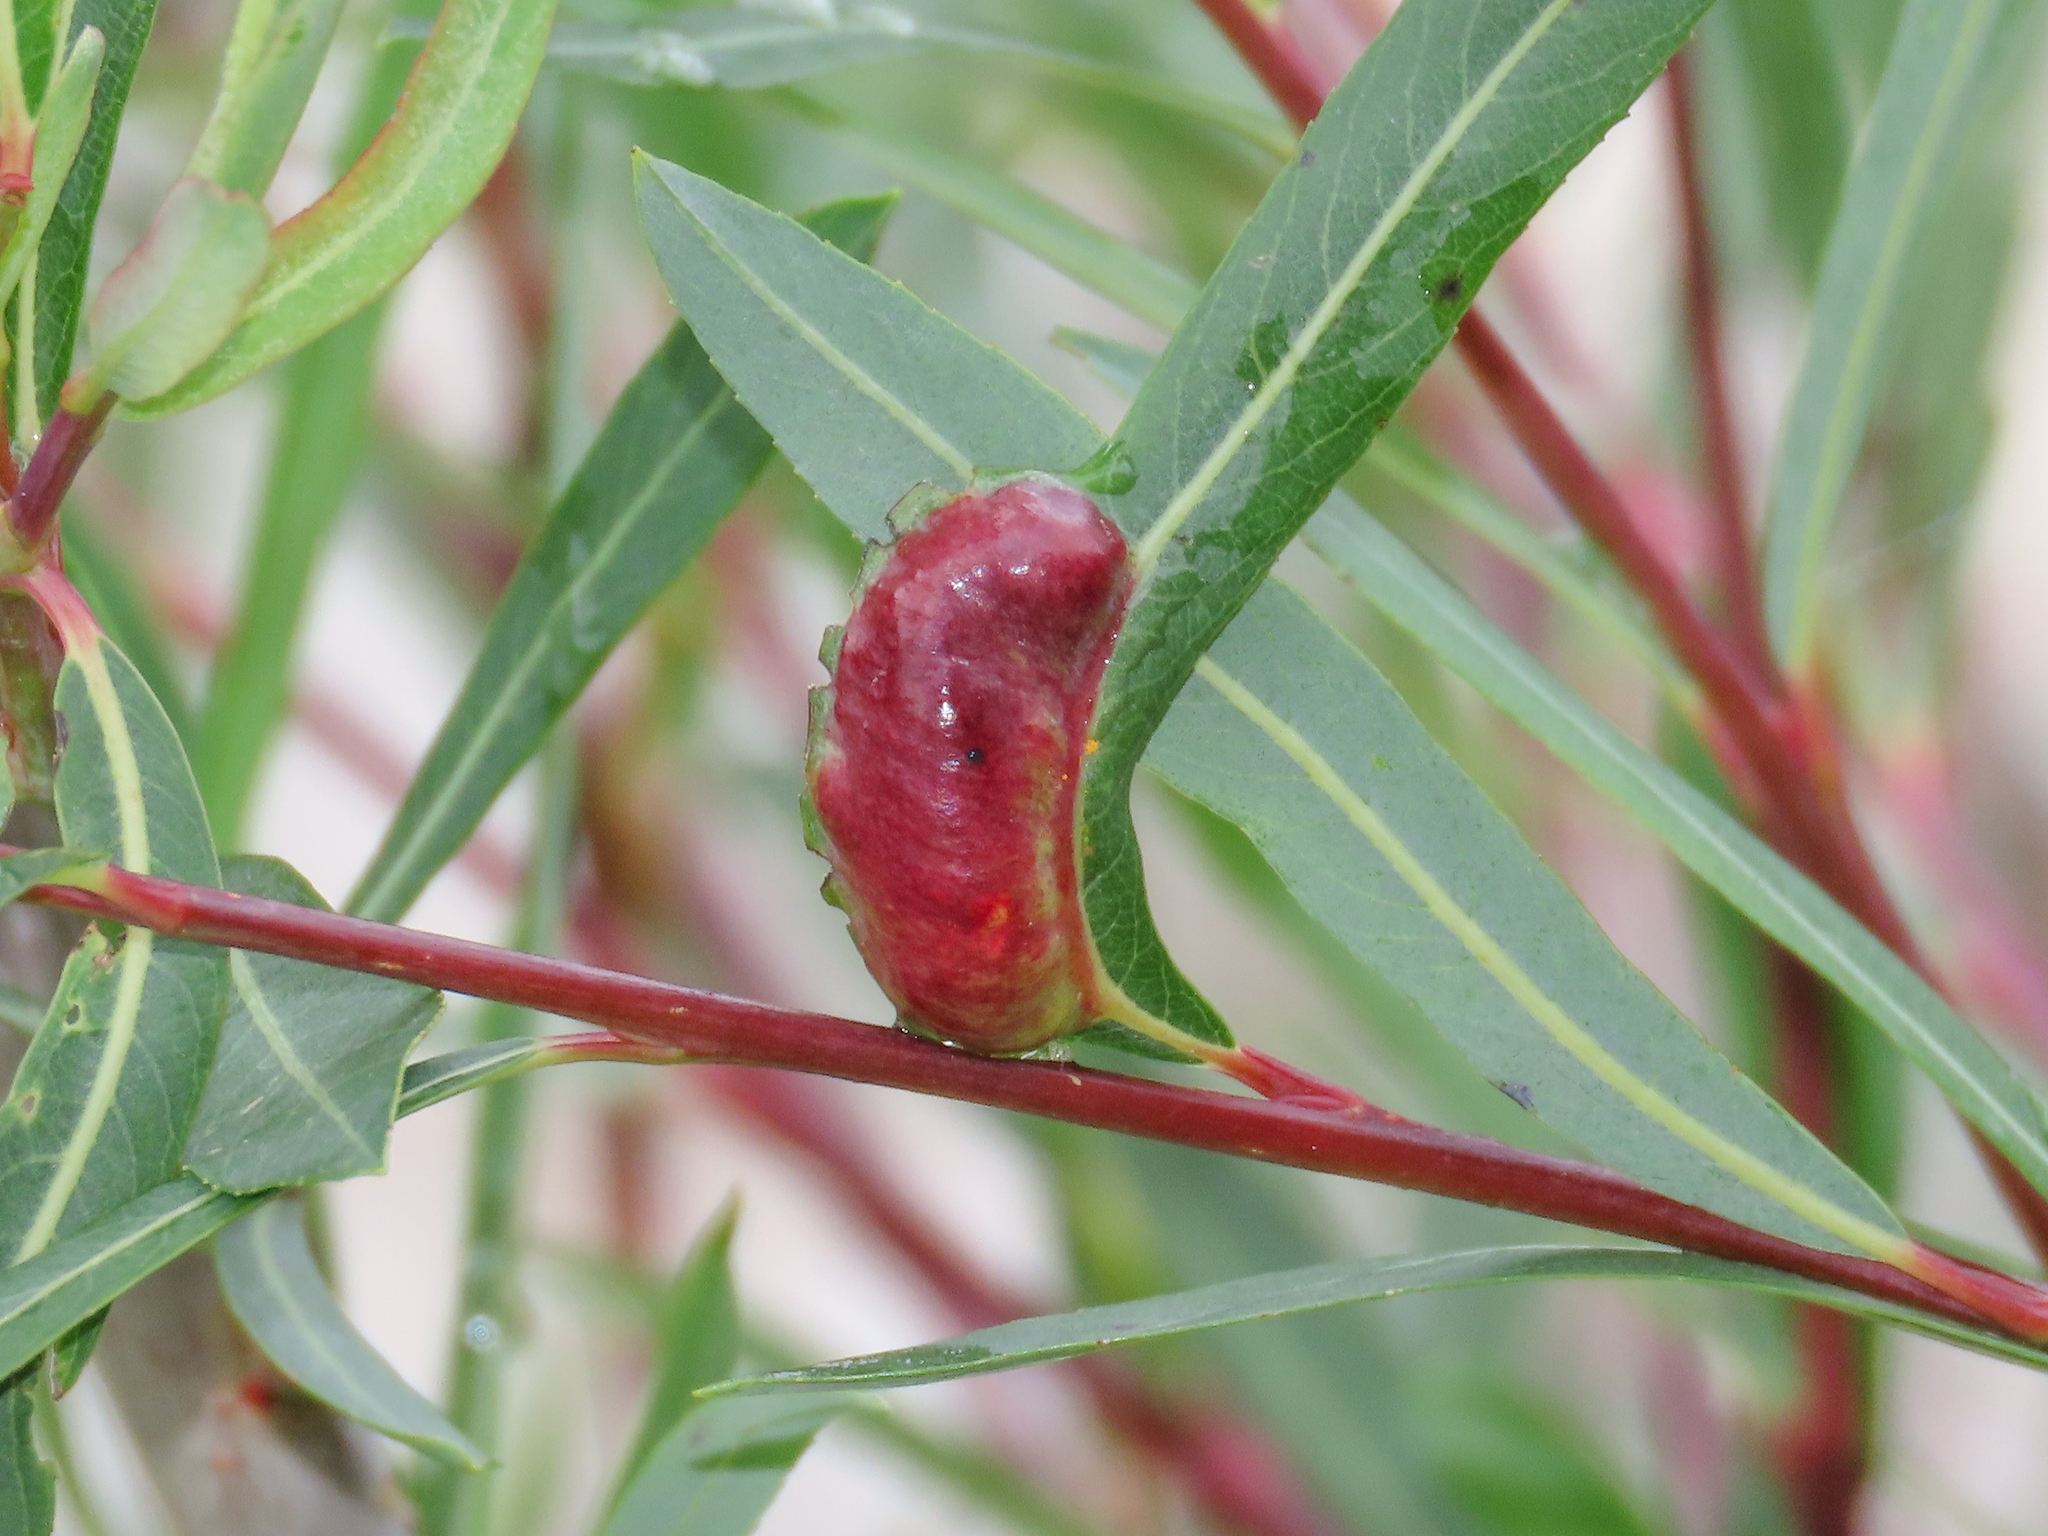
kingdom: Animalia
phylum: Arthropoda
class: Insecta
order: Hymenoptera
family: Tenthredinidae
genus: Pontania
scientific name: Pontania vesicator
